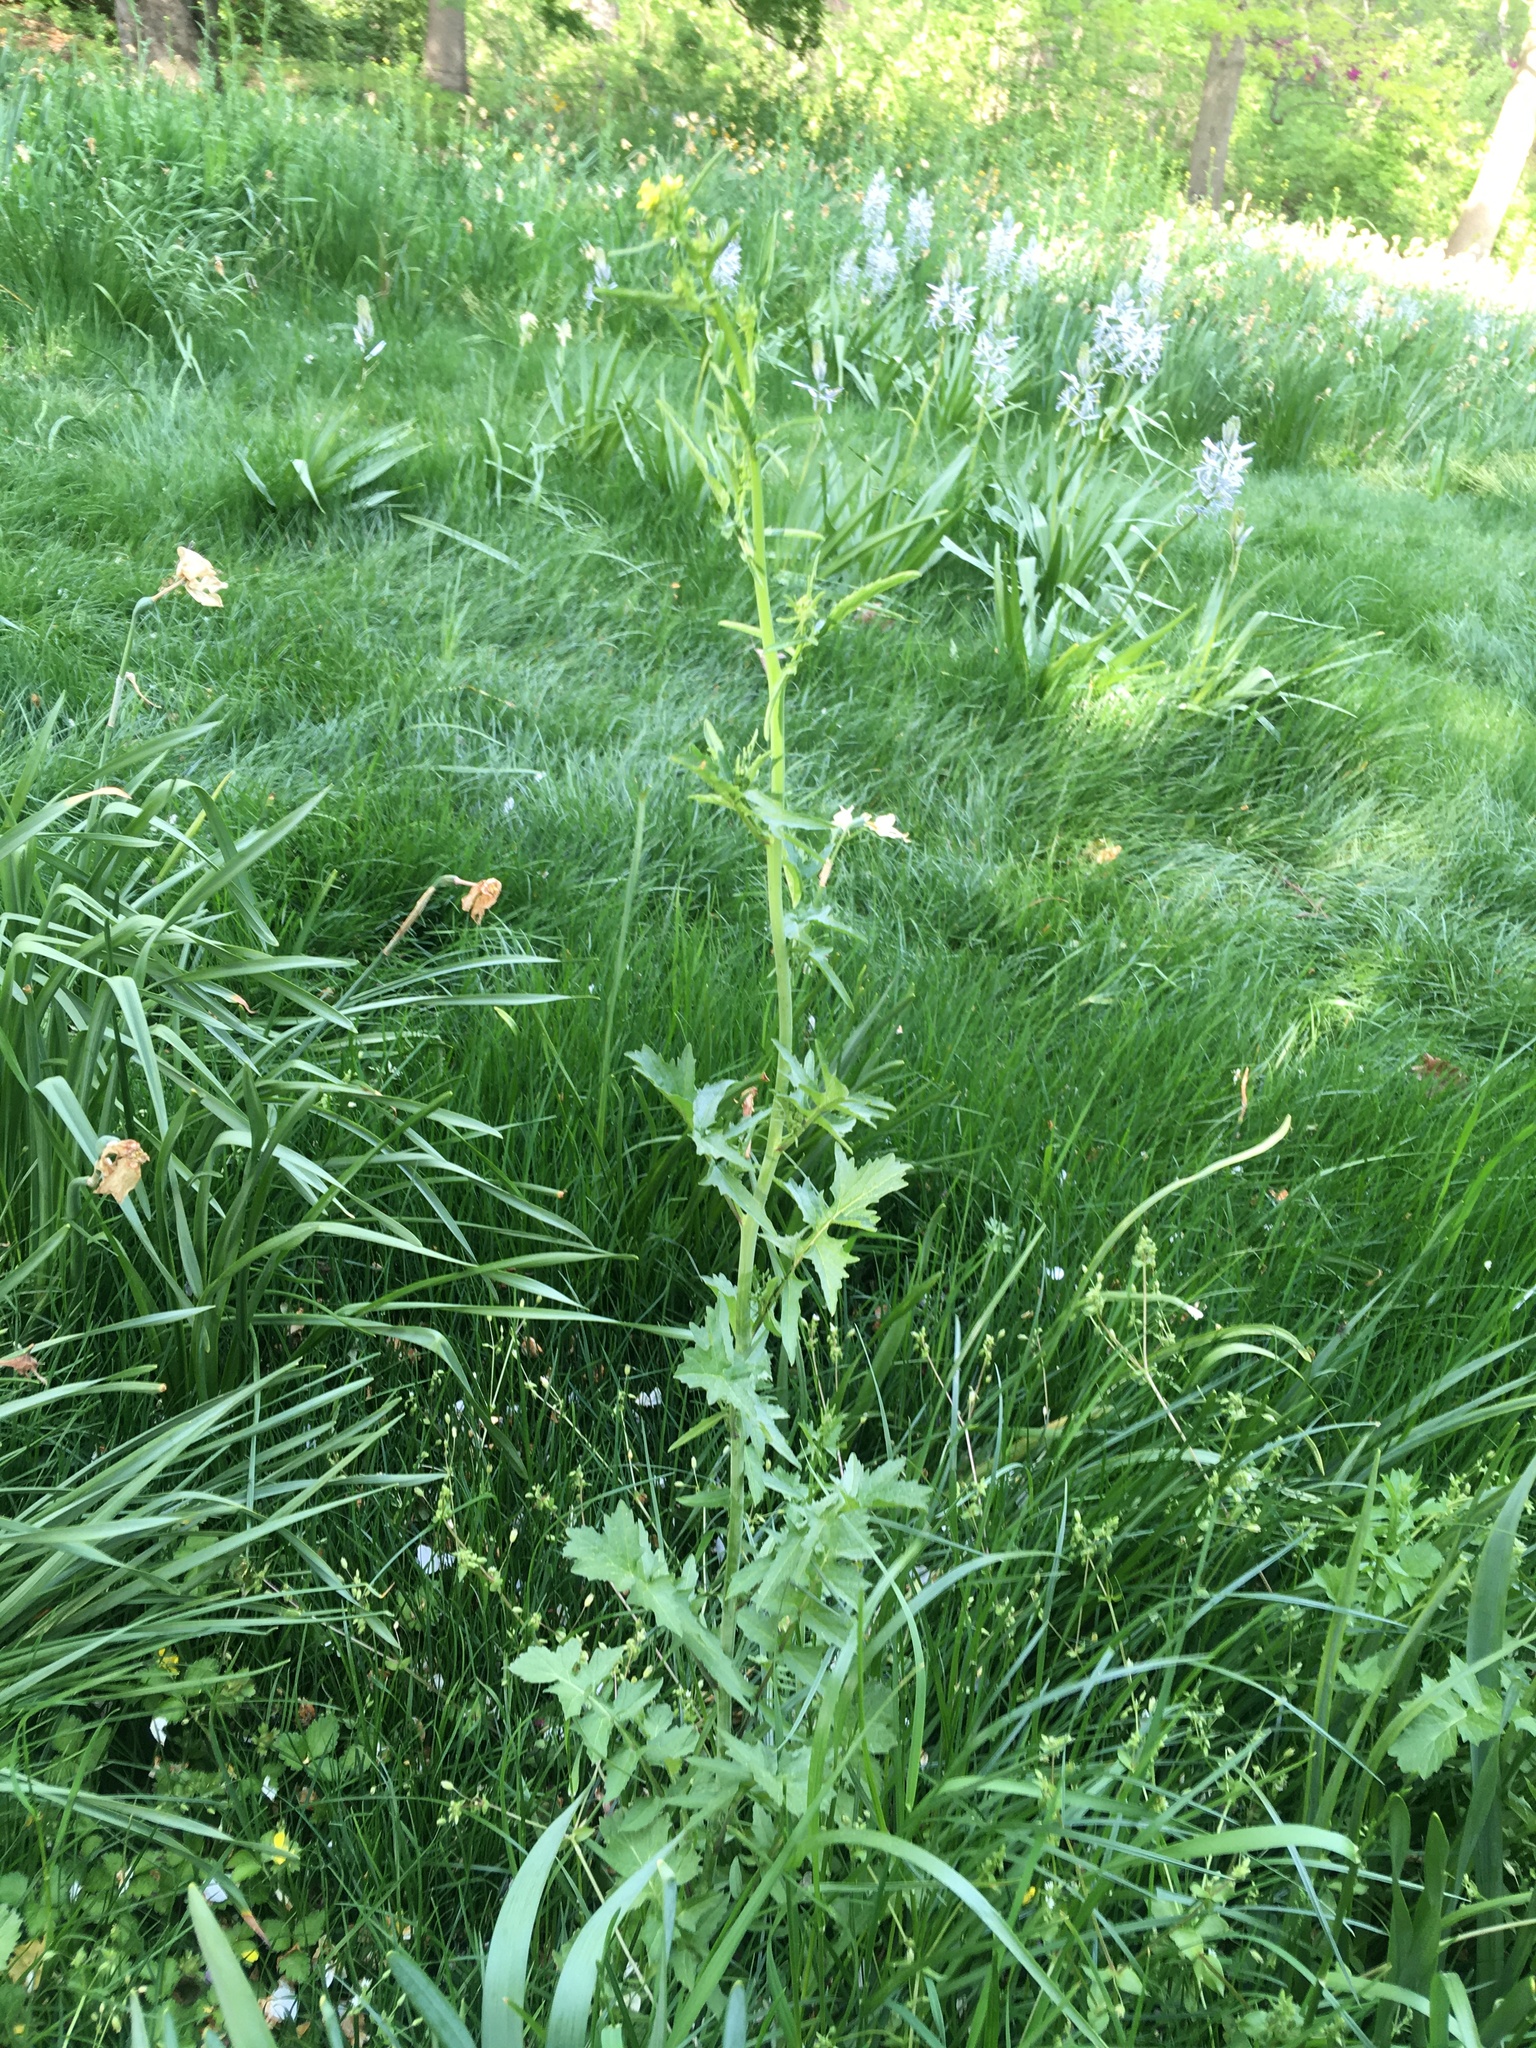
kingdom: Plantae
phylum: Tracheophyta
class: Magnoliopsida
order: Brassicales
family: Brassicaceae
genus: Sisymbrium
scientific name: Sisymbrium officinale
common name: Hedge mustard
